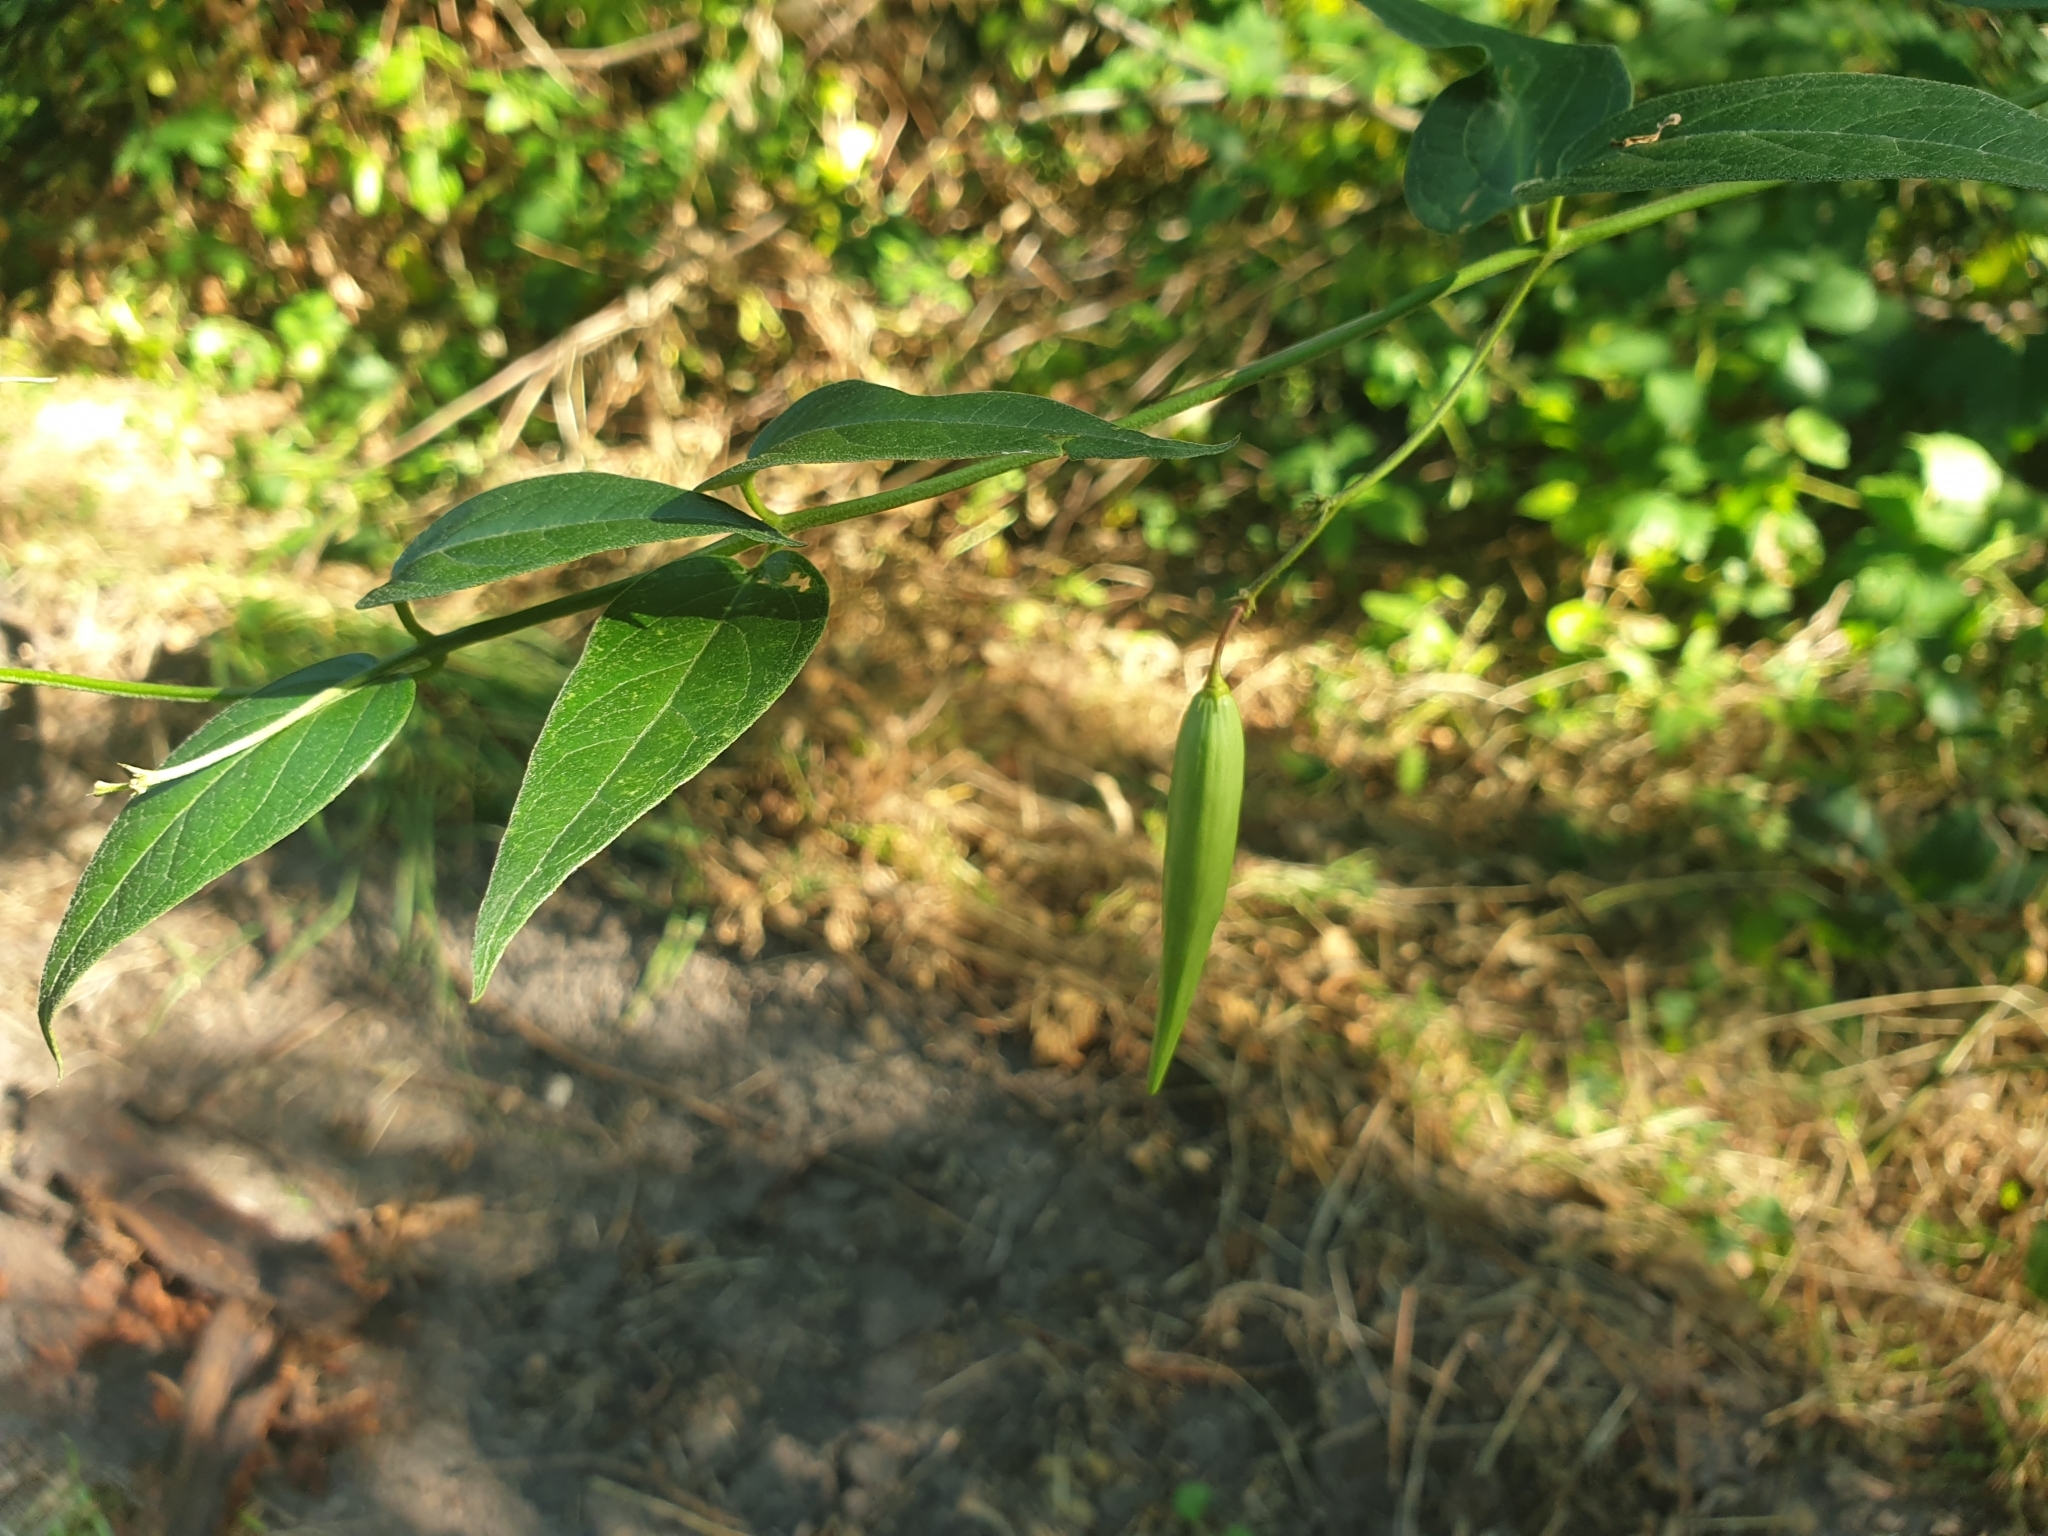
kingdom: Plantae
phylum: Tracheophyta
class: Magnoliopsida
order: Gentianales
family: Apocynaceae
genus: Vincetoxicum
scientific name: Vincetoxicum hirundinaria
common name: White swallowwort
